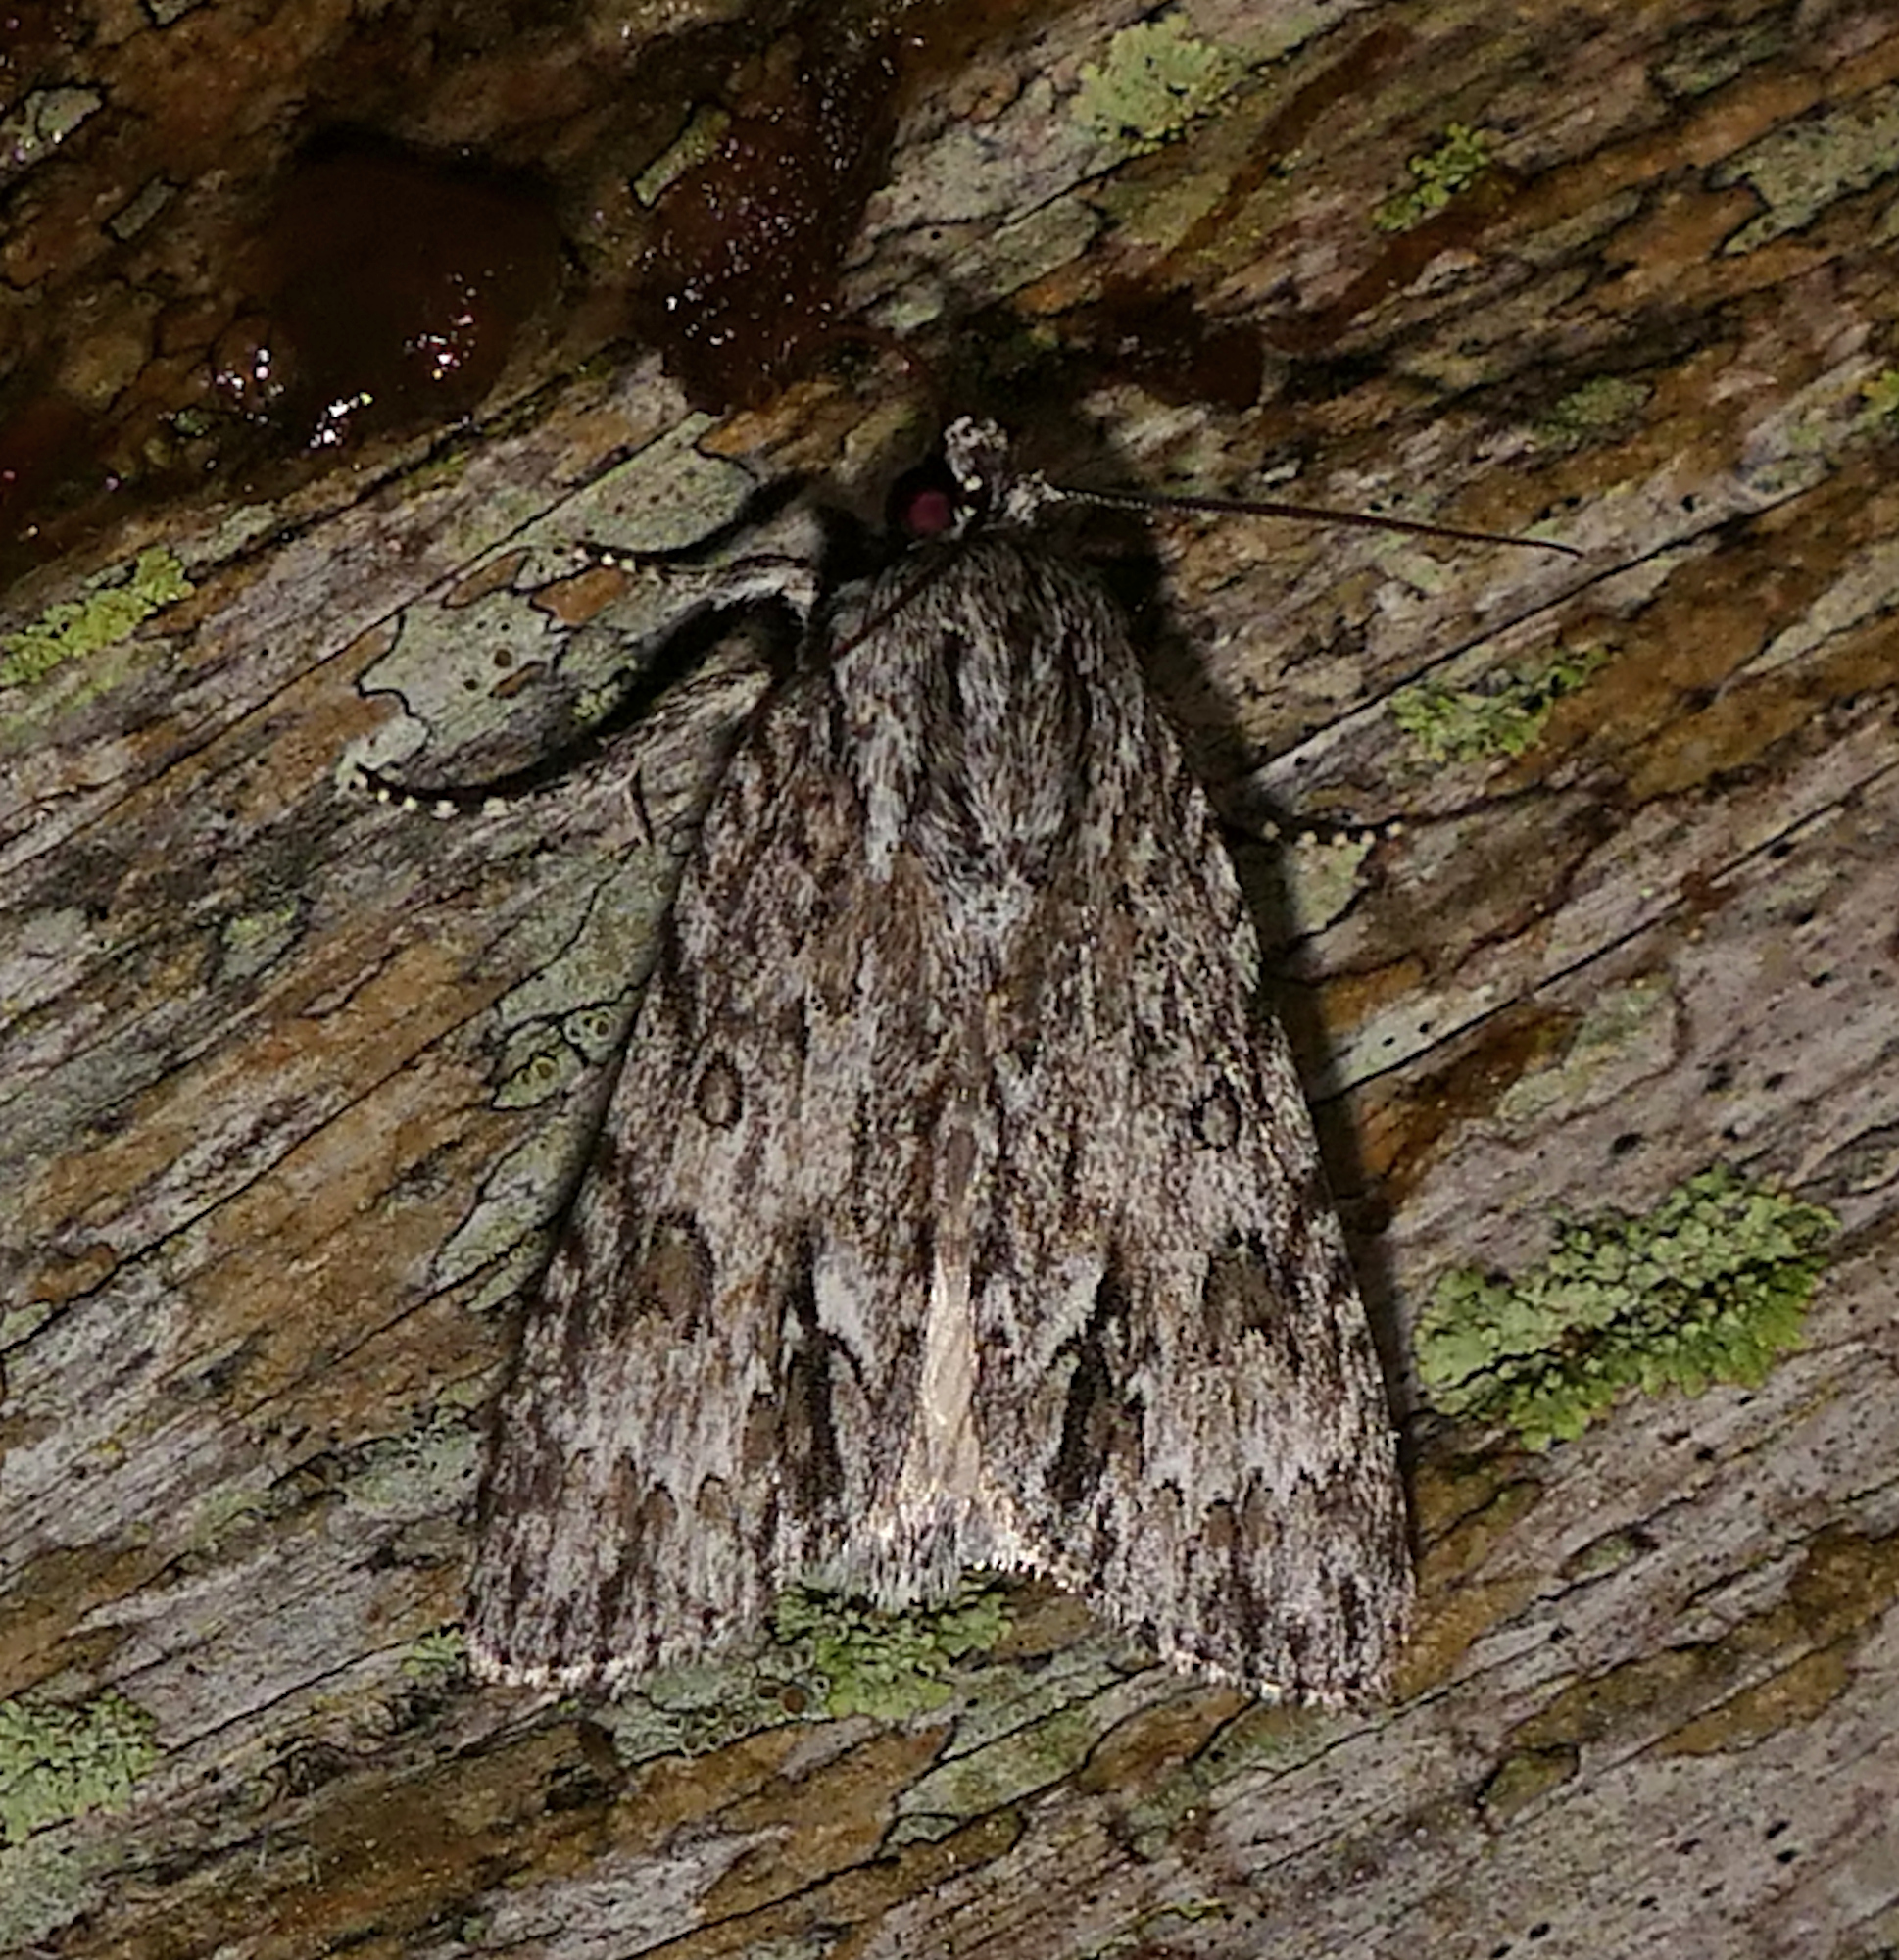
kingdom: Animalia
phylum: Arthropoda
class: Insecta
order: Lepidoptera
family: Noctuidae
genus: Acronicta
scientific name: Acronicta rubricoma
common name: Hackberry dagger
